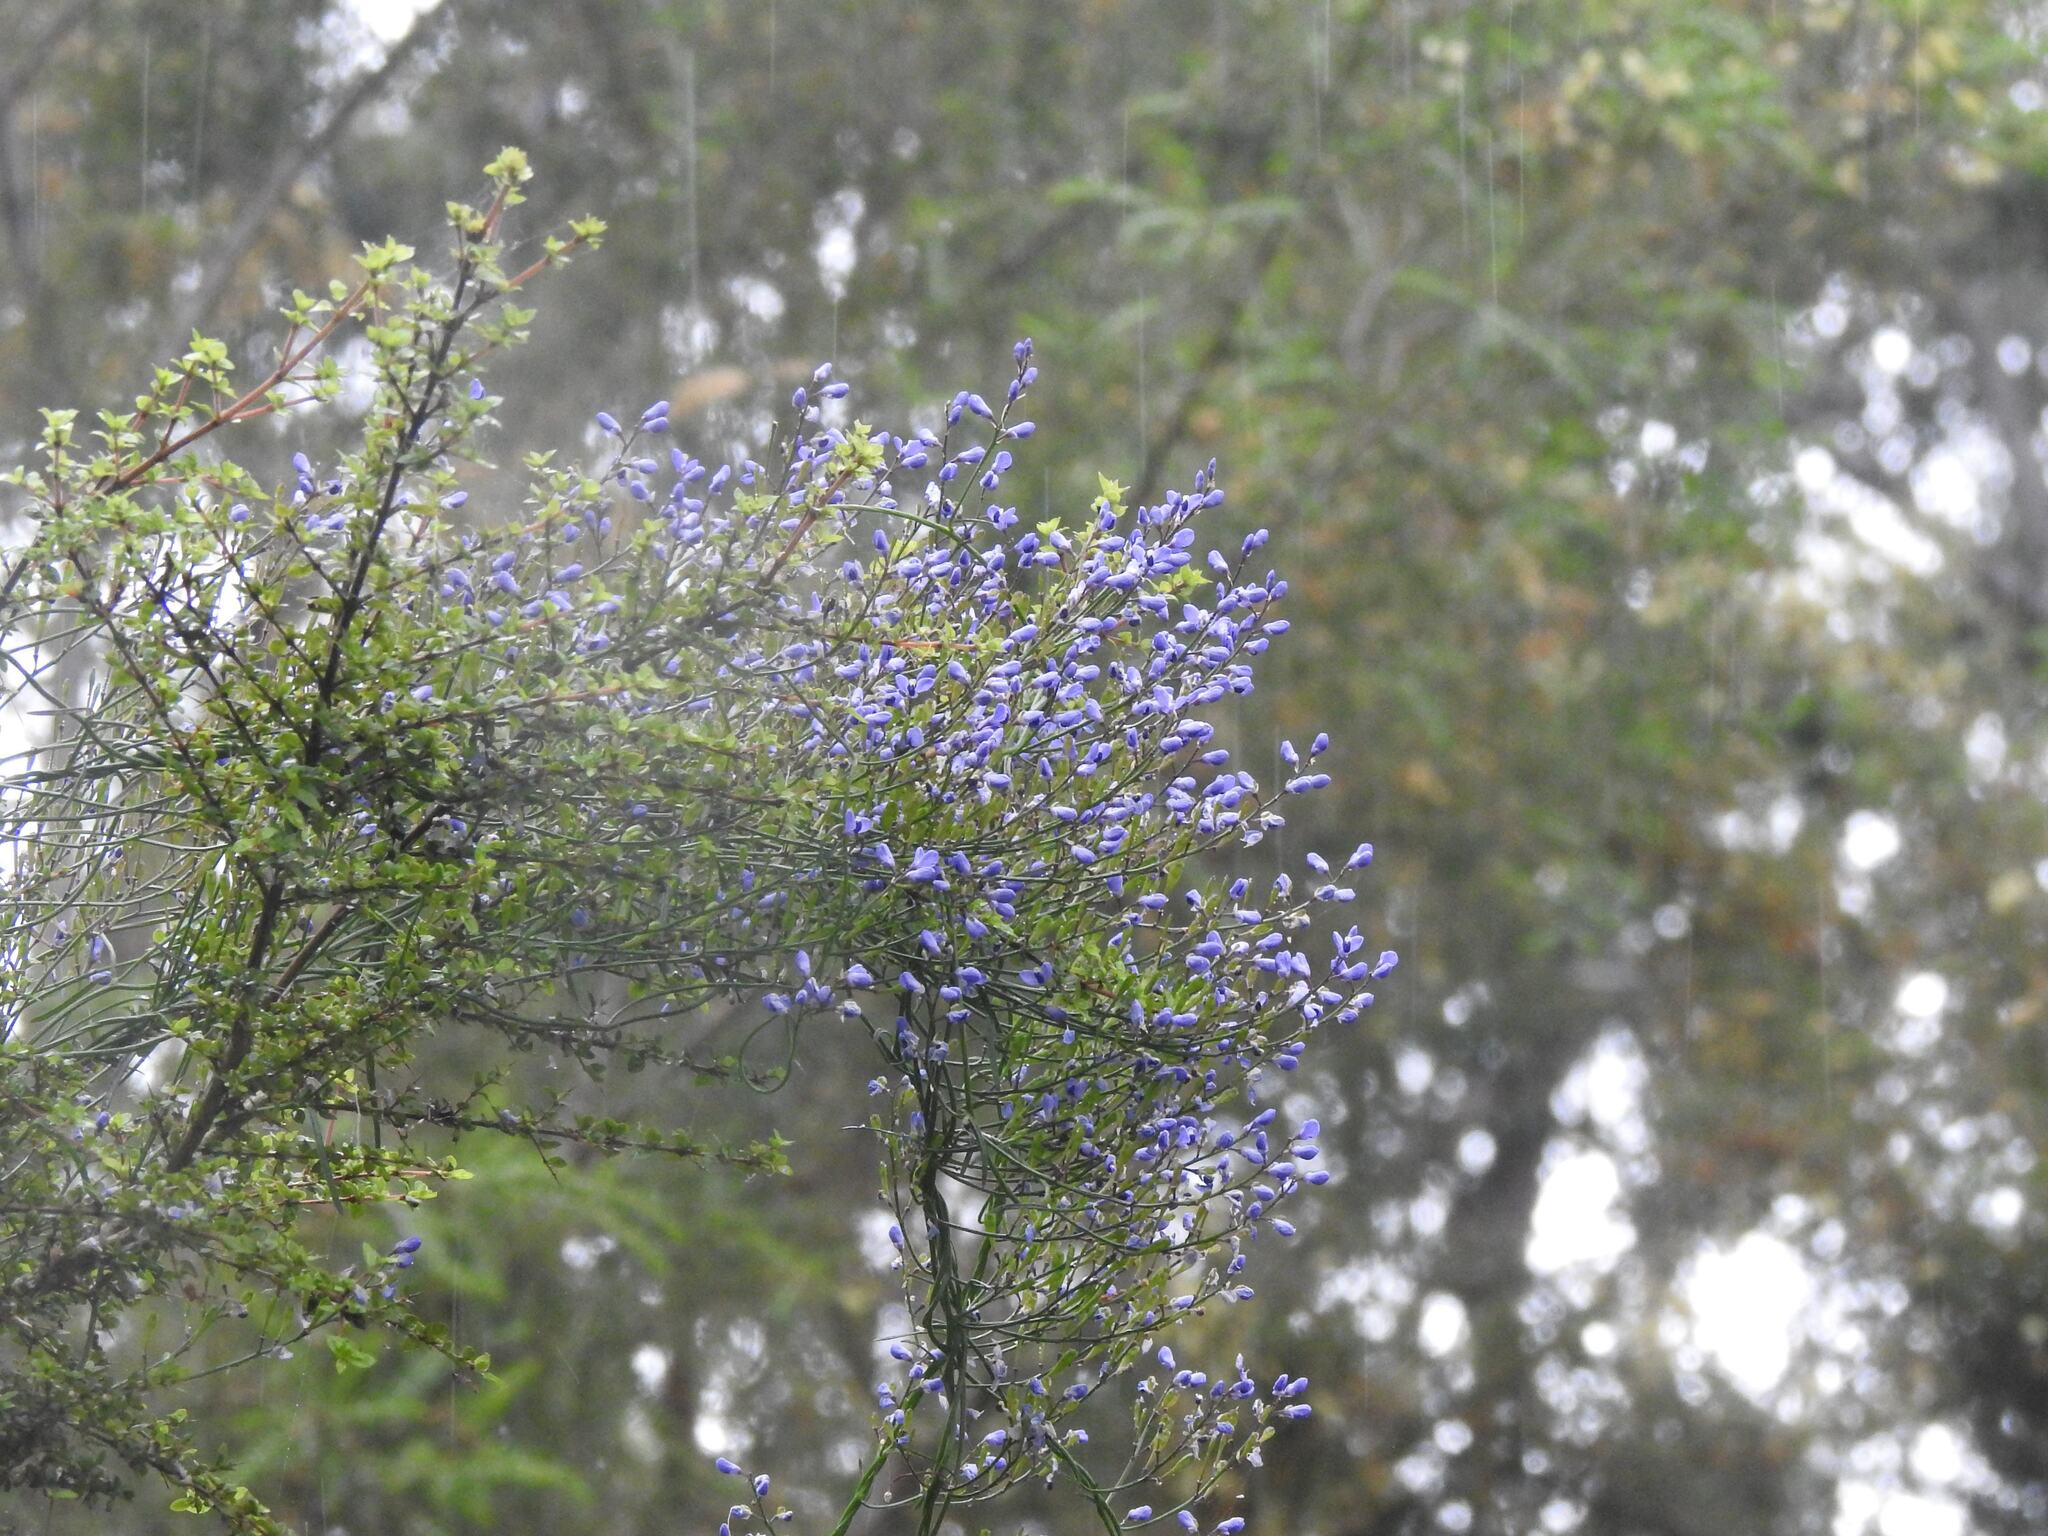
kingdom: Plantae
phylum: Tracheophyta
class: Magnoliopsida
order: Fabales
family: Polygalaceae
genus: Comesperma
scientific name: Comesperma volubile
